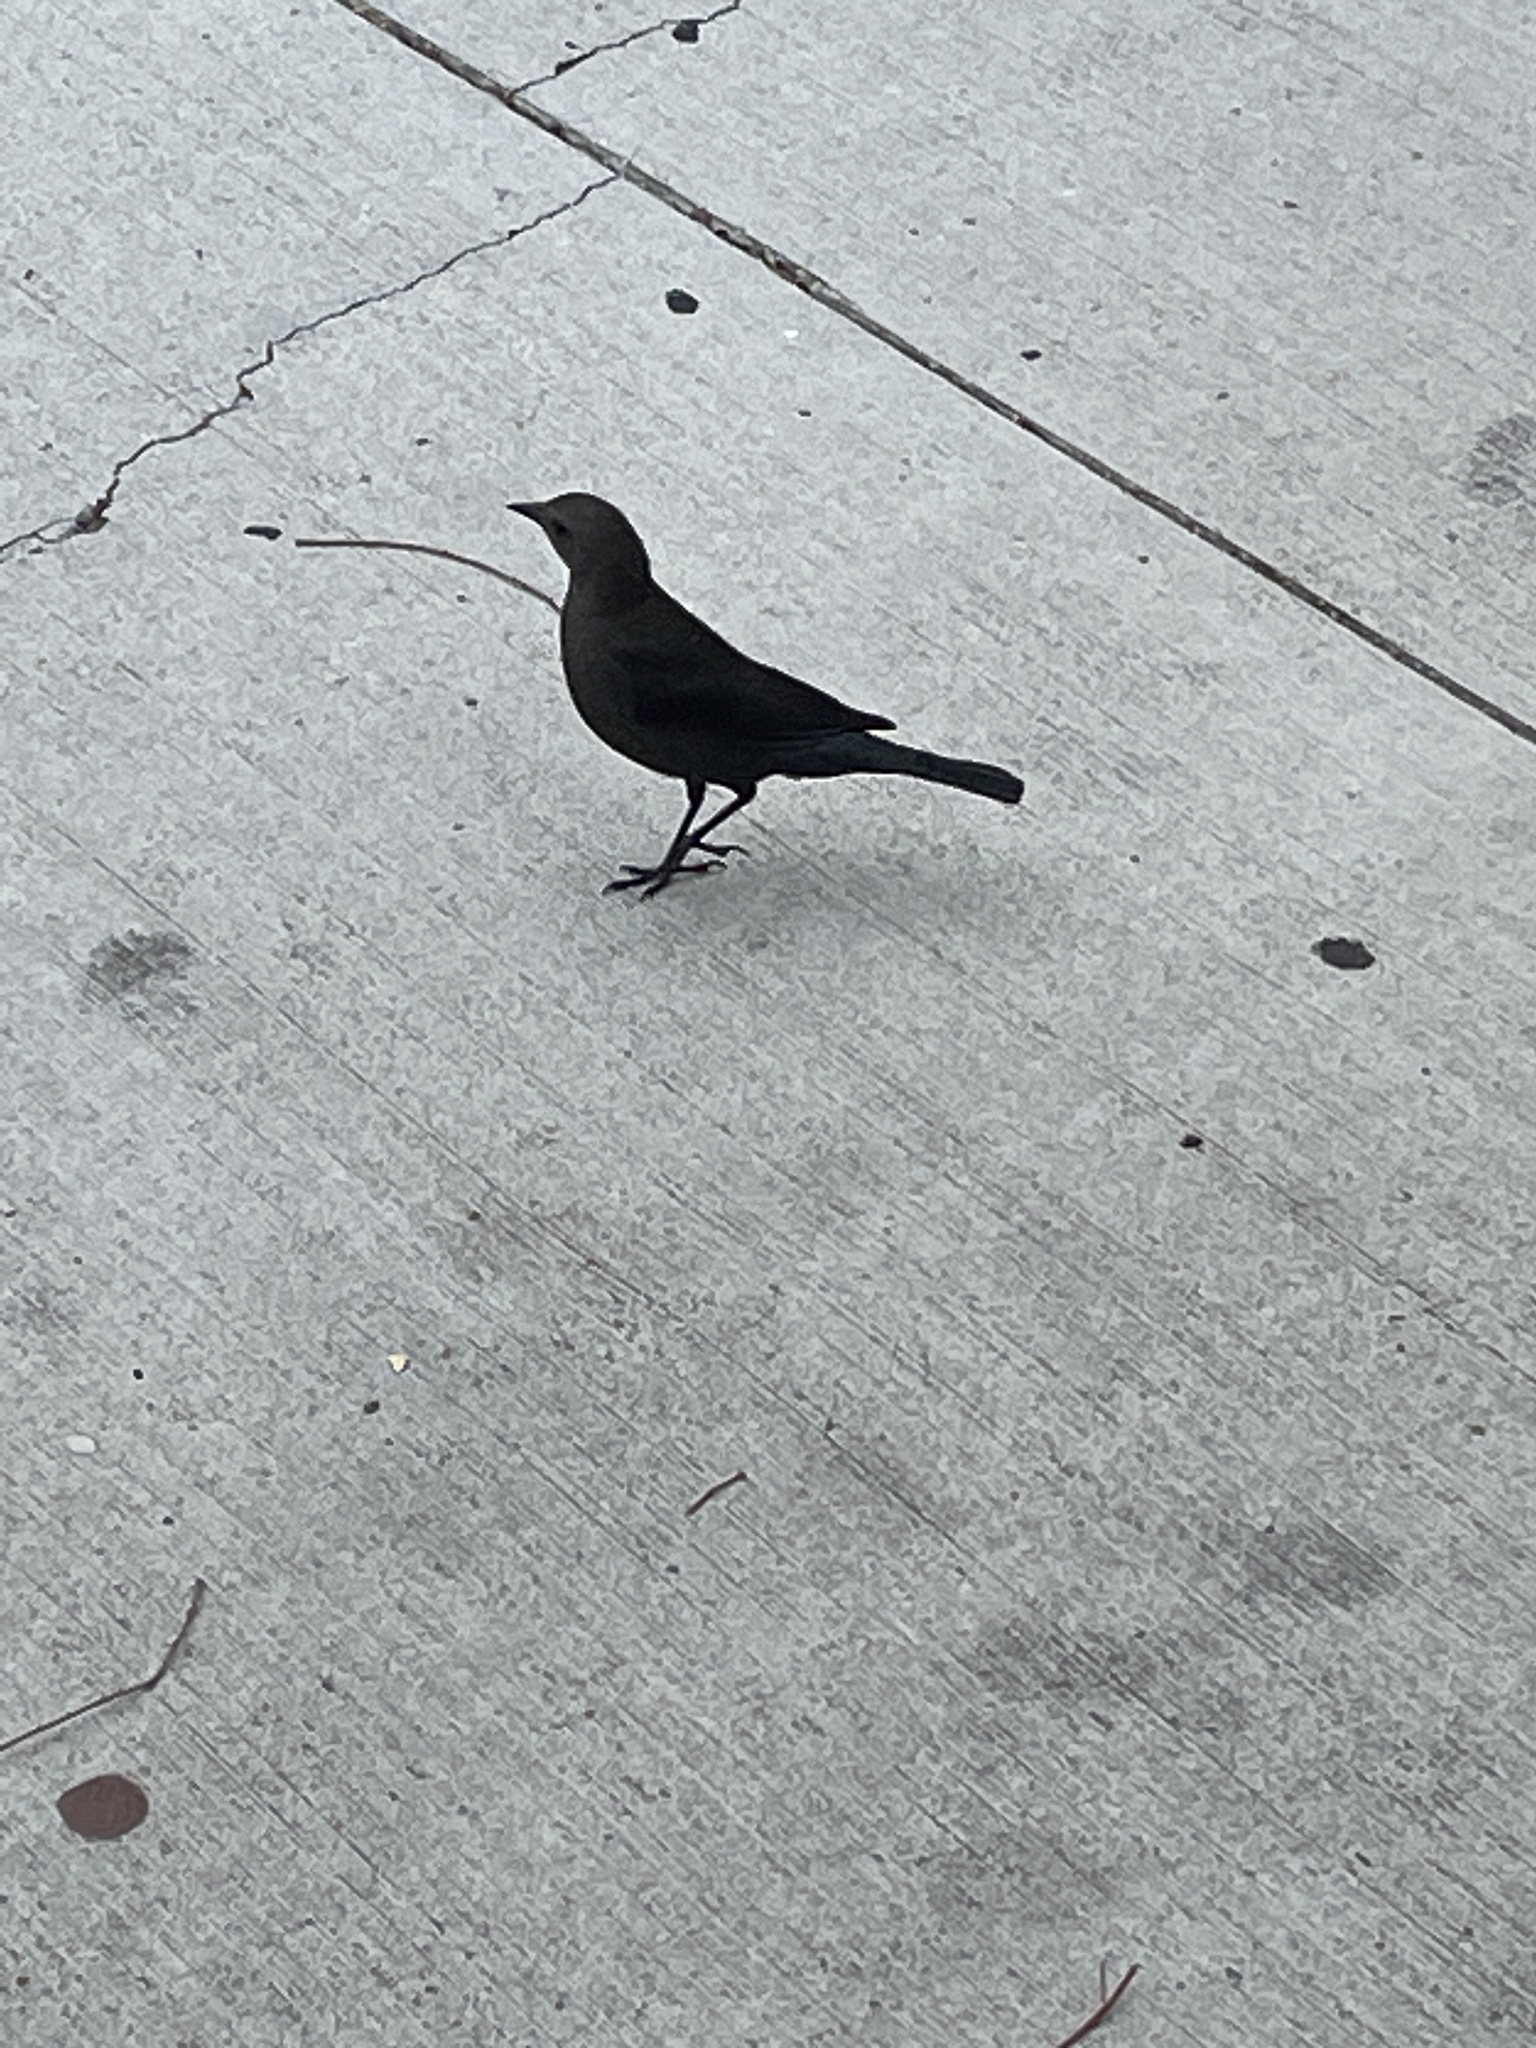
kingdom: Animalia
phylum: Chordata
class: Aves
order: Passeriformes
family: Icteridae
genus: Euphagus
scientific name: Euphagus cyanocephalus
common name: Brewer's blackbird
